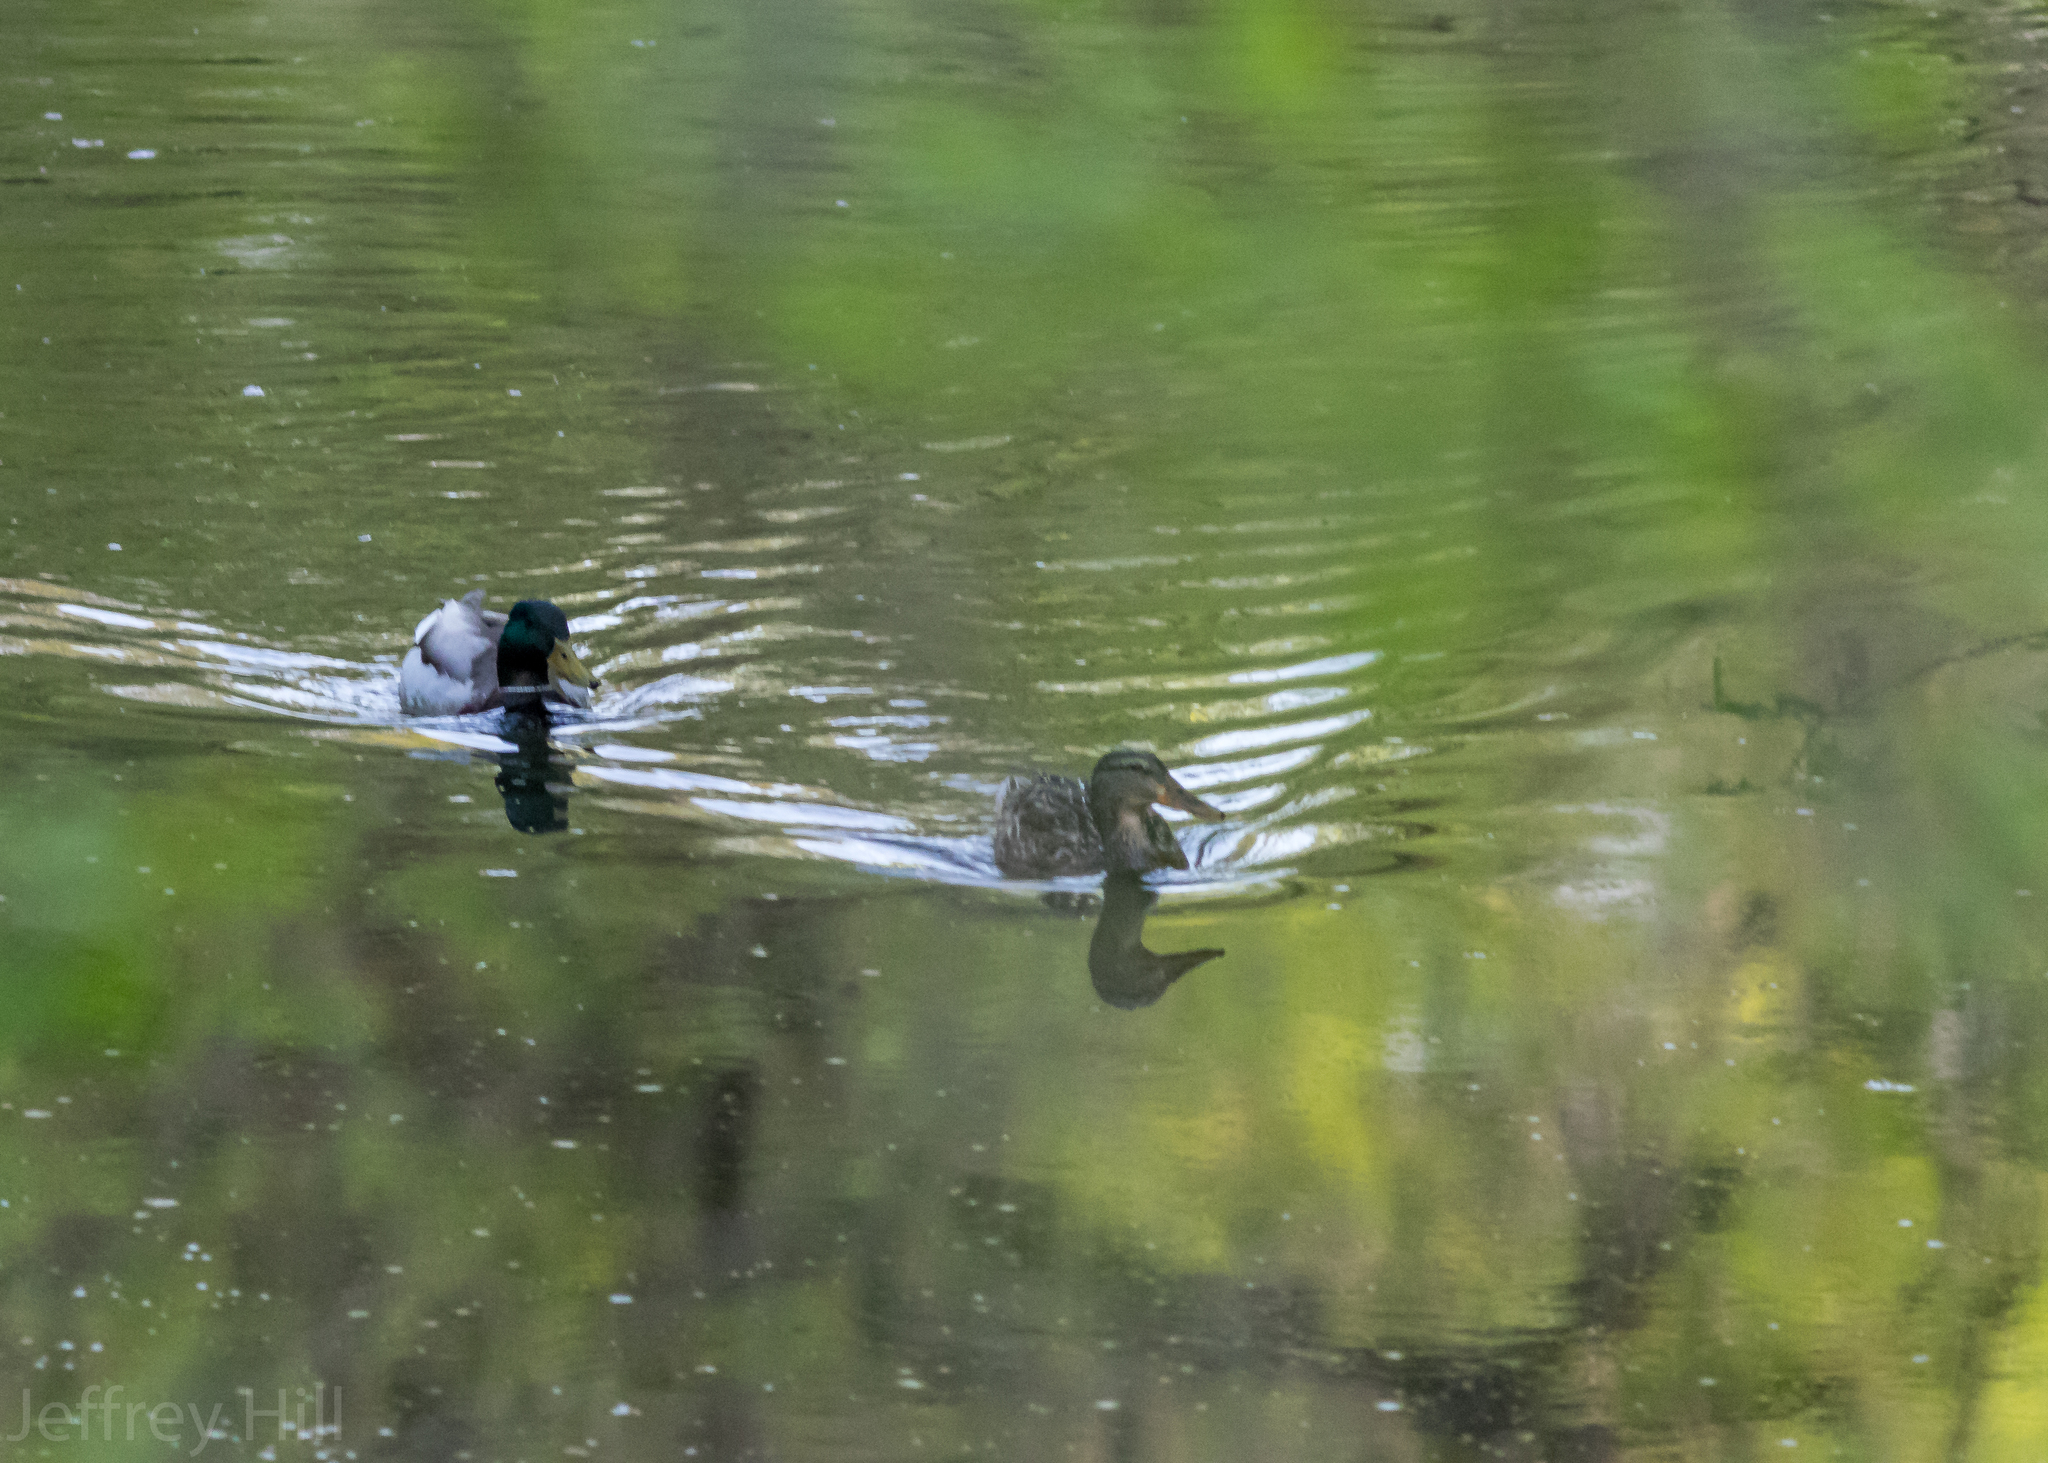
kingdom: Animalia
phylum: Chordata
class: Aves
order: Anseriformes
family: Anatidae
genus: Anas
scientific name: Anas platyrhynchos
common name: Mallard
